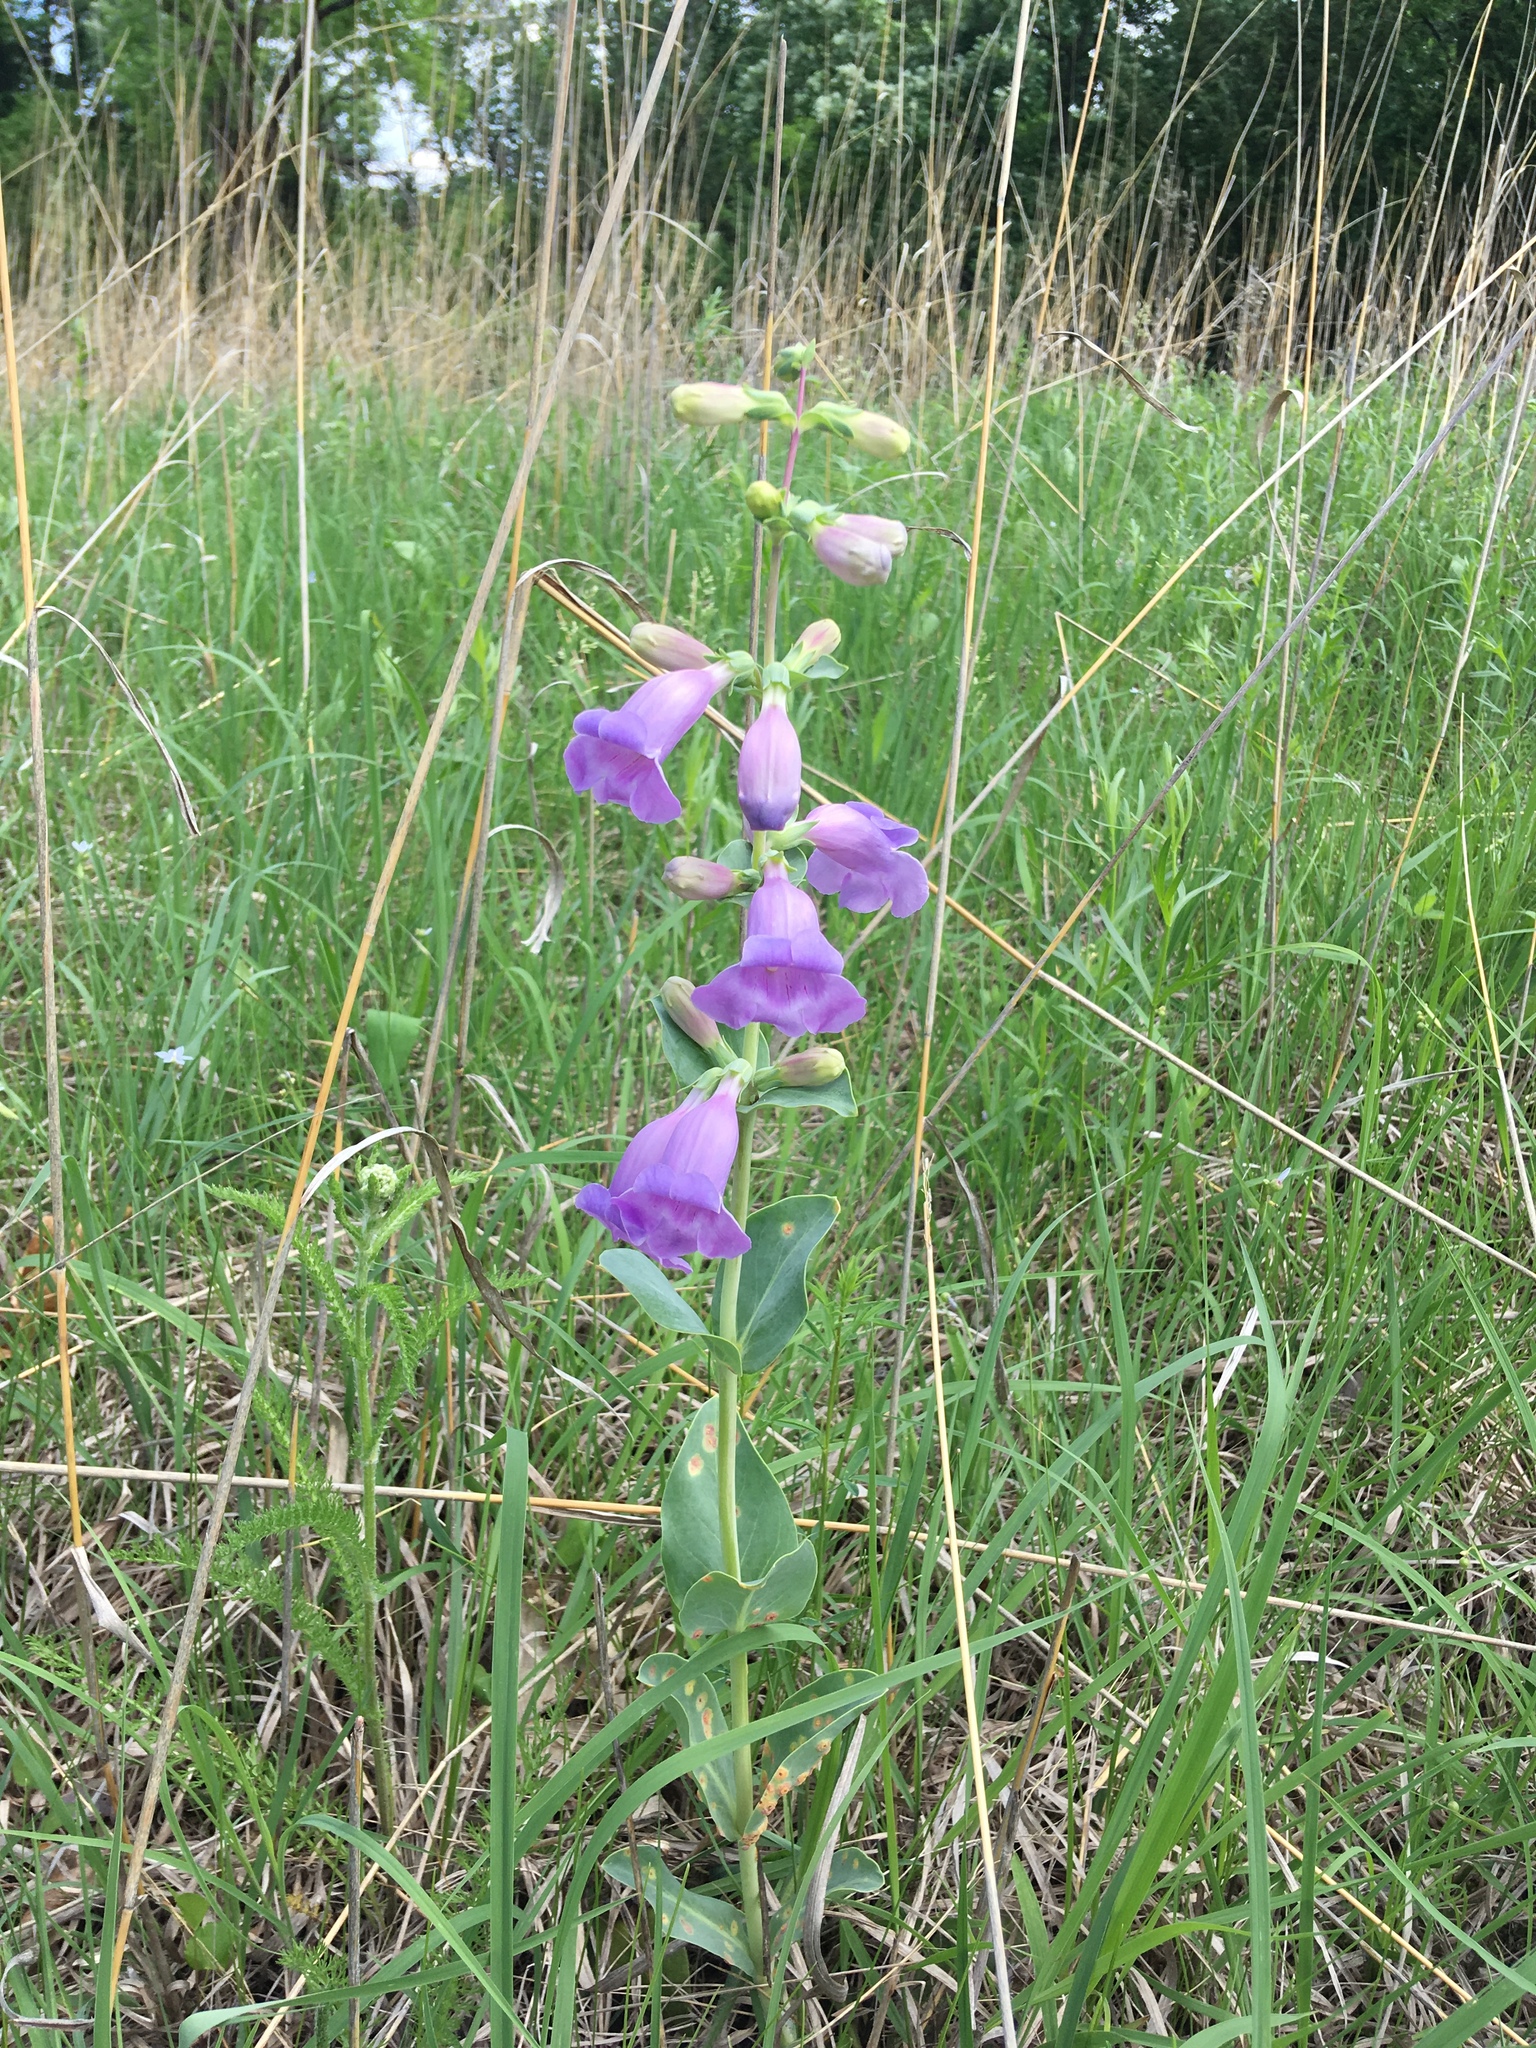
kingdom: Plantae
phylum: Tracheophyta
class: Magnoliopsida
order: Lamiales
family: Plantaginaceae
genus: Penstemon
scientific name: Penstemon
